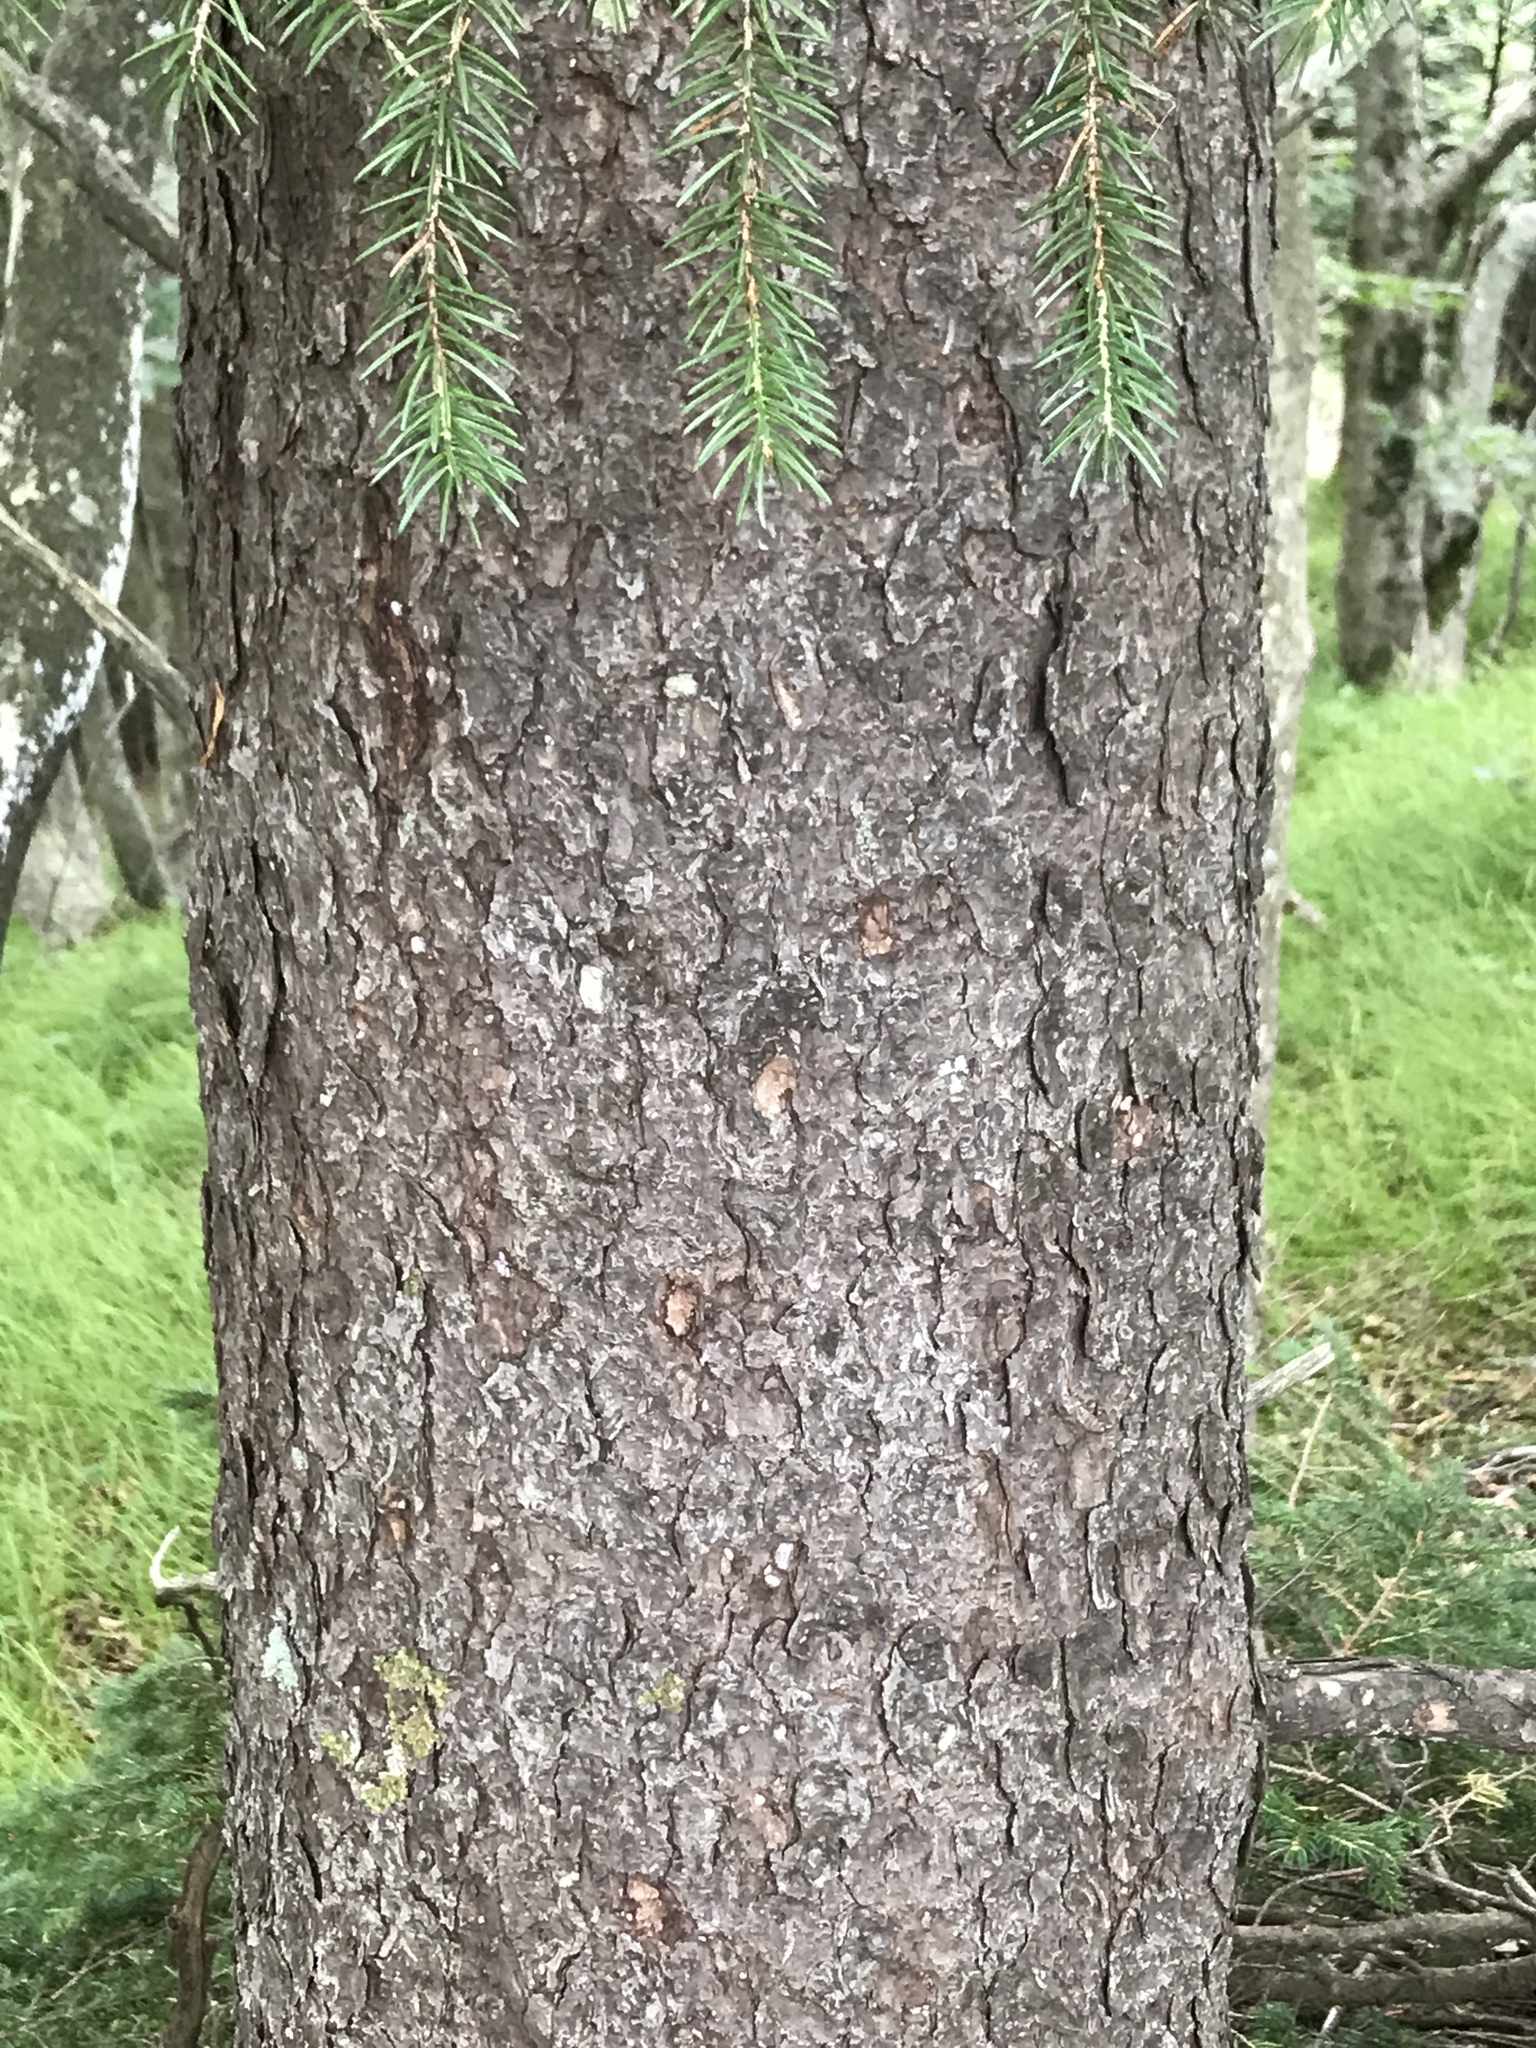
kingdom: Plantae
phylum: Tracheophyta
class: Pinopsida
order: Pinales
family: Pinaceae
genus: Picea
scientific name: Picea rubens
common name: Red spruce
